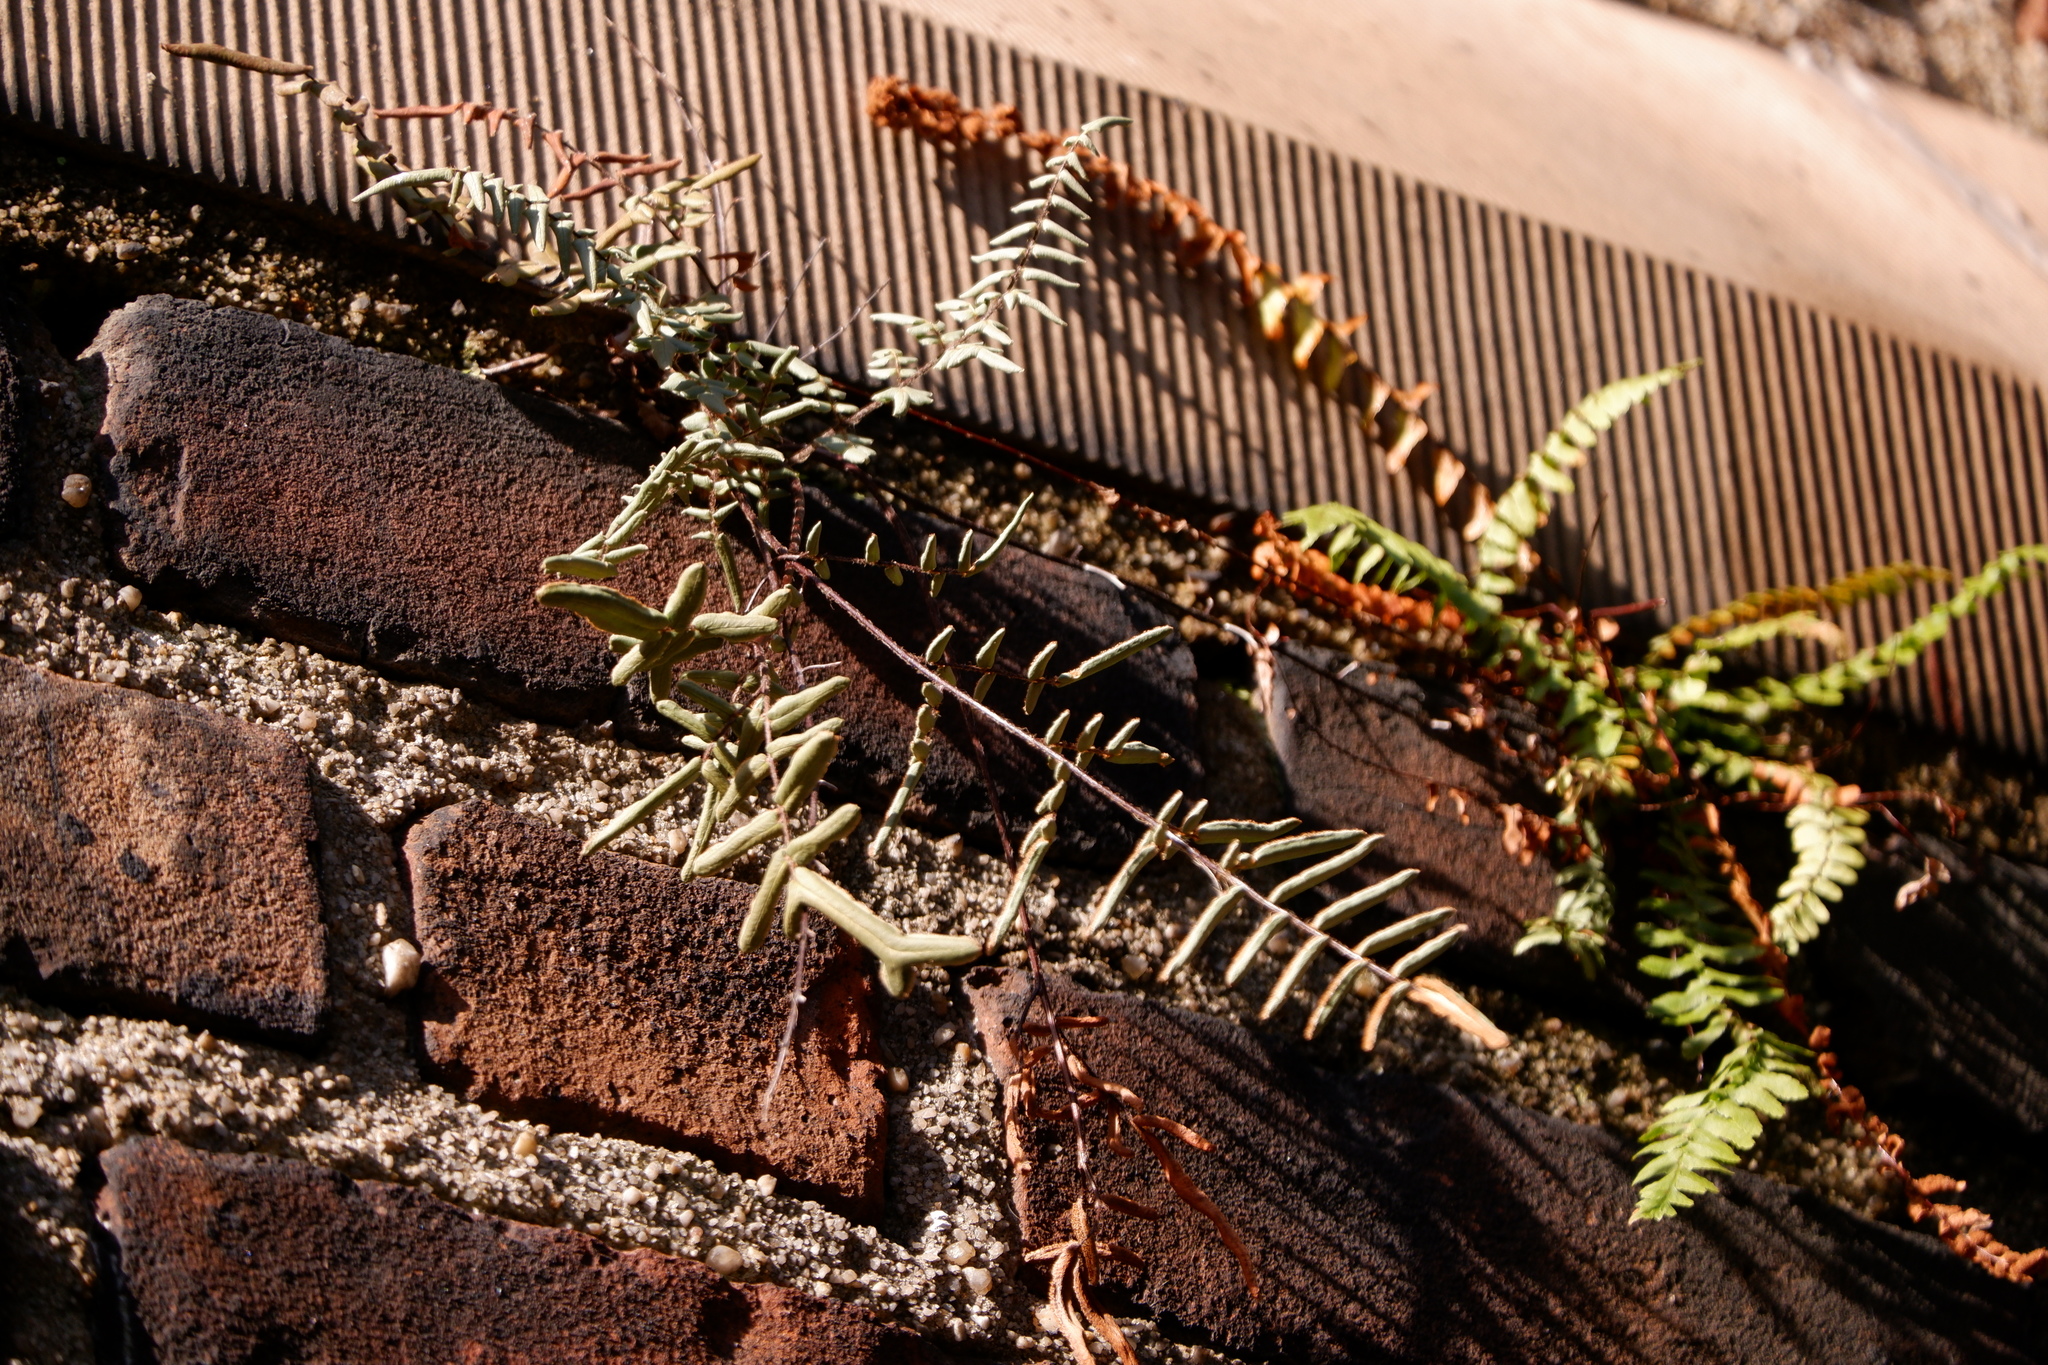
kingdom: Plantae
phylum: Tracheophyta
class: Polypodiopsida
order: Polypodiales
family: Pteridaceae
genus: Pellaea
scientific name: Pellaea atropurpurea
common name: Hairy cliffbrake
